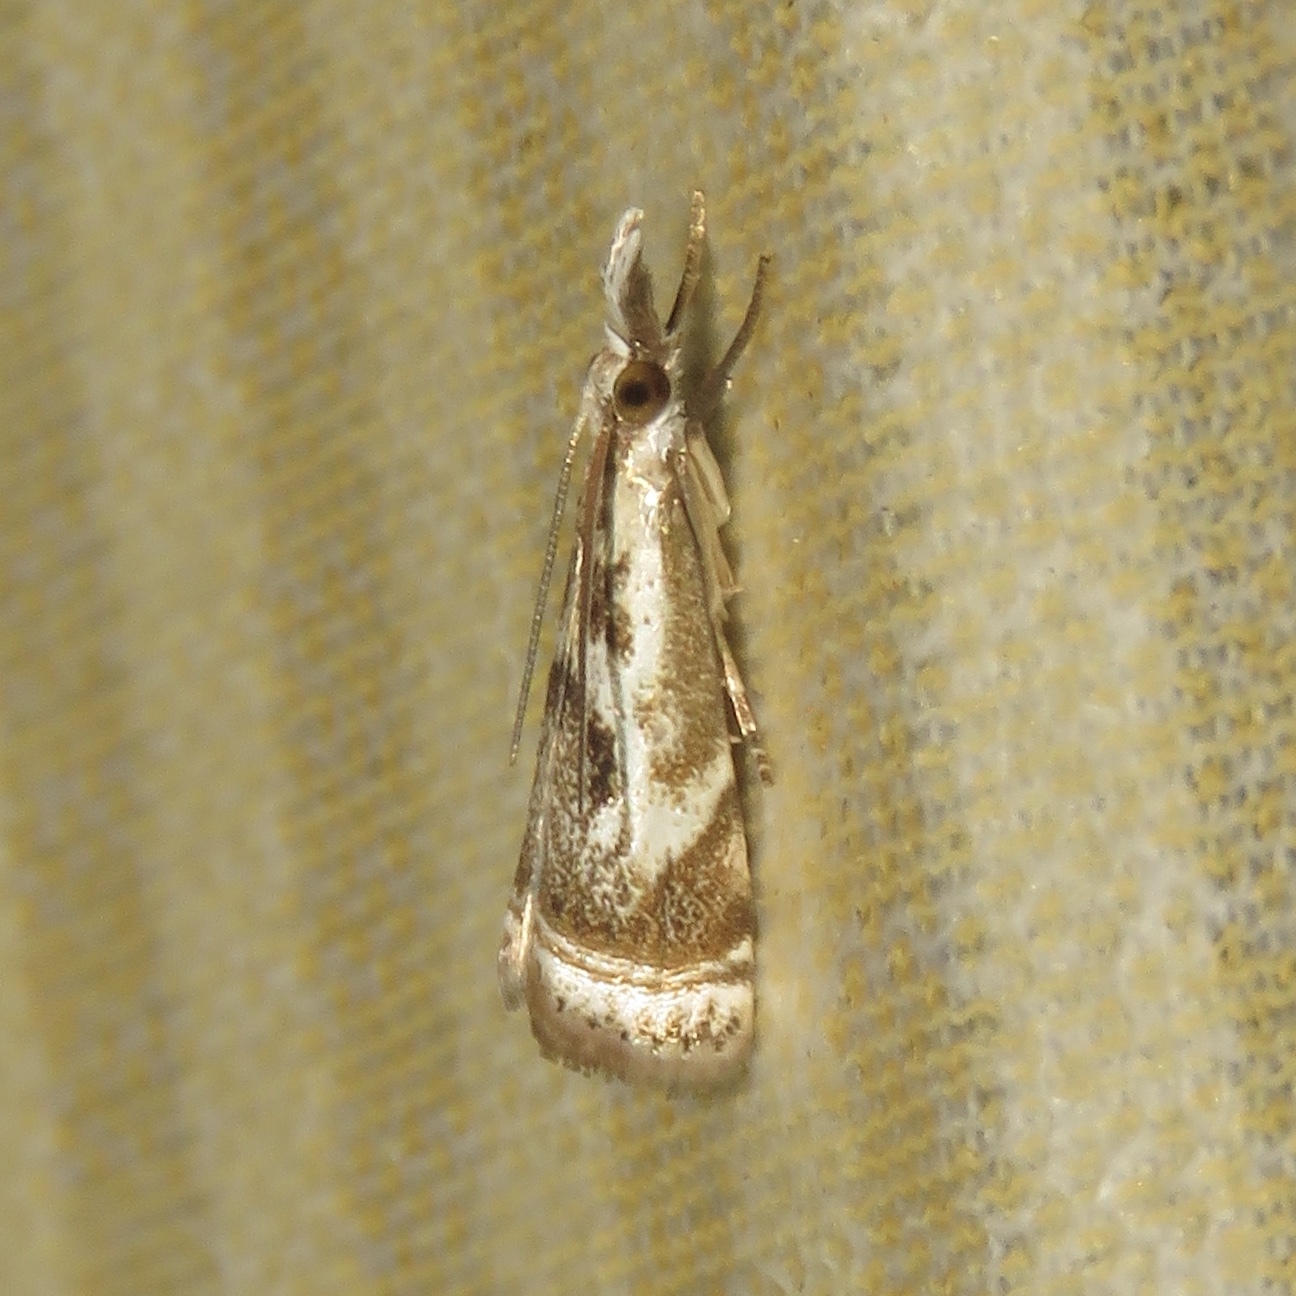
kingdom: Animalia
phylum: Arthropoda
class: Insecta
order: Lepidoptera
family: Crambidae
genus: Microcrambus
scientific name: Microcrambus elegans
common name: Elegant grass-veneer
